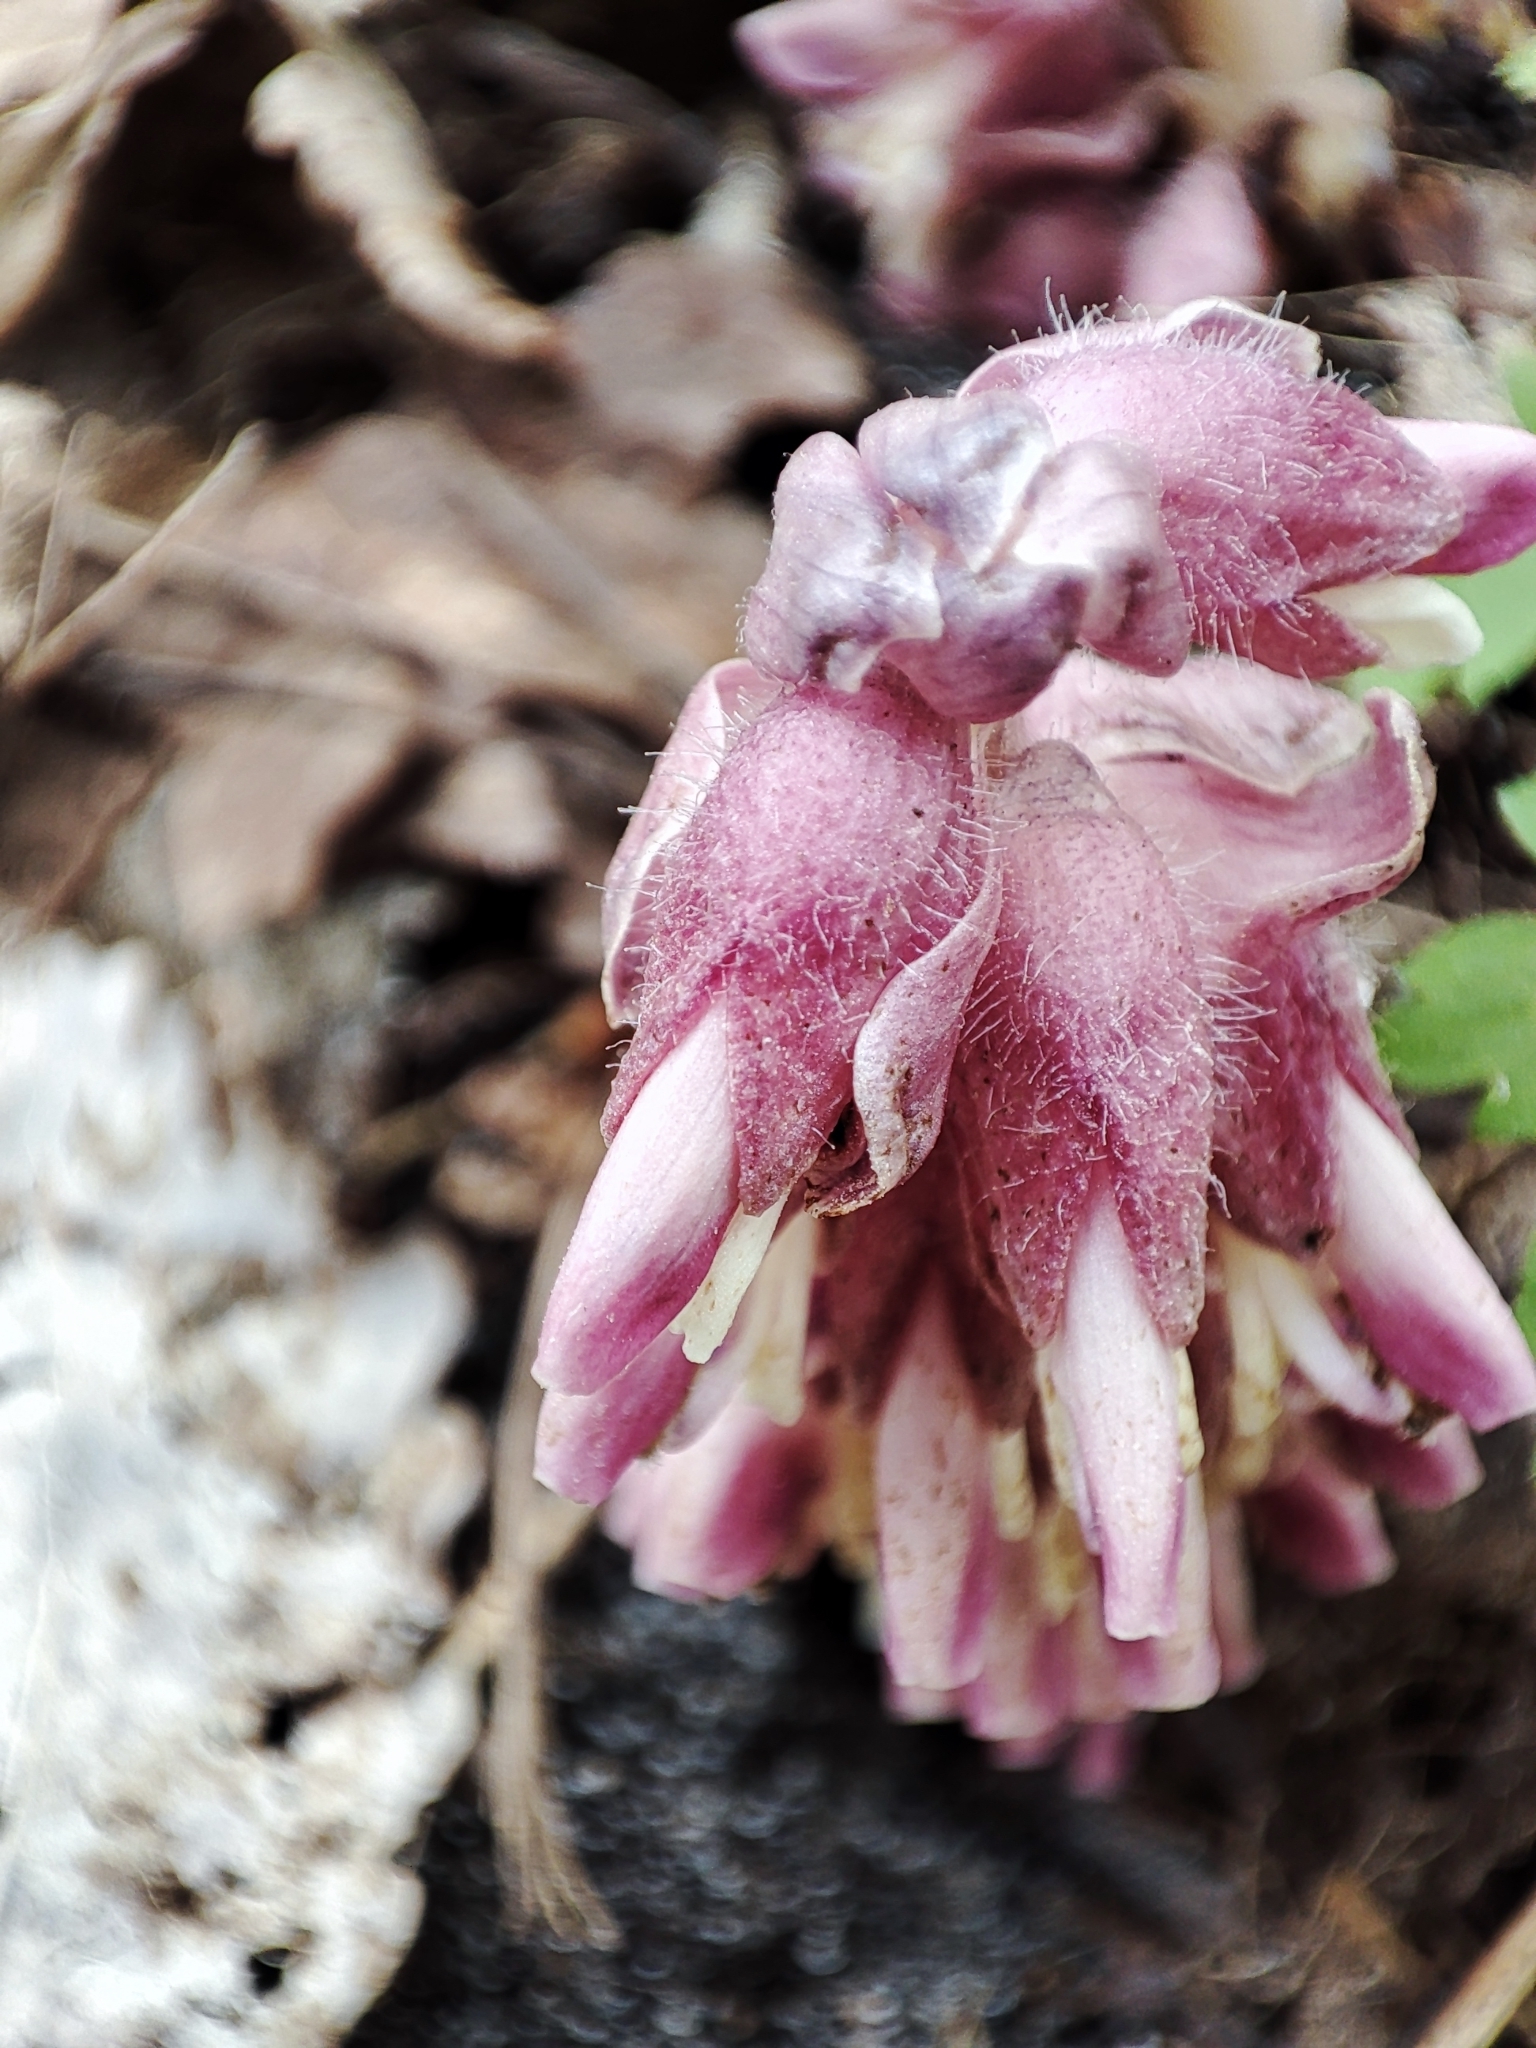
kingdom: Plantae
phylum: Tracheophyta
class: Magnoliopsida
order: Lamiales
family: Orobanchaceae
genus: Lathraea
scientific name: Lathraea squamaria
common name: Toothwort
